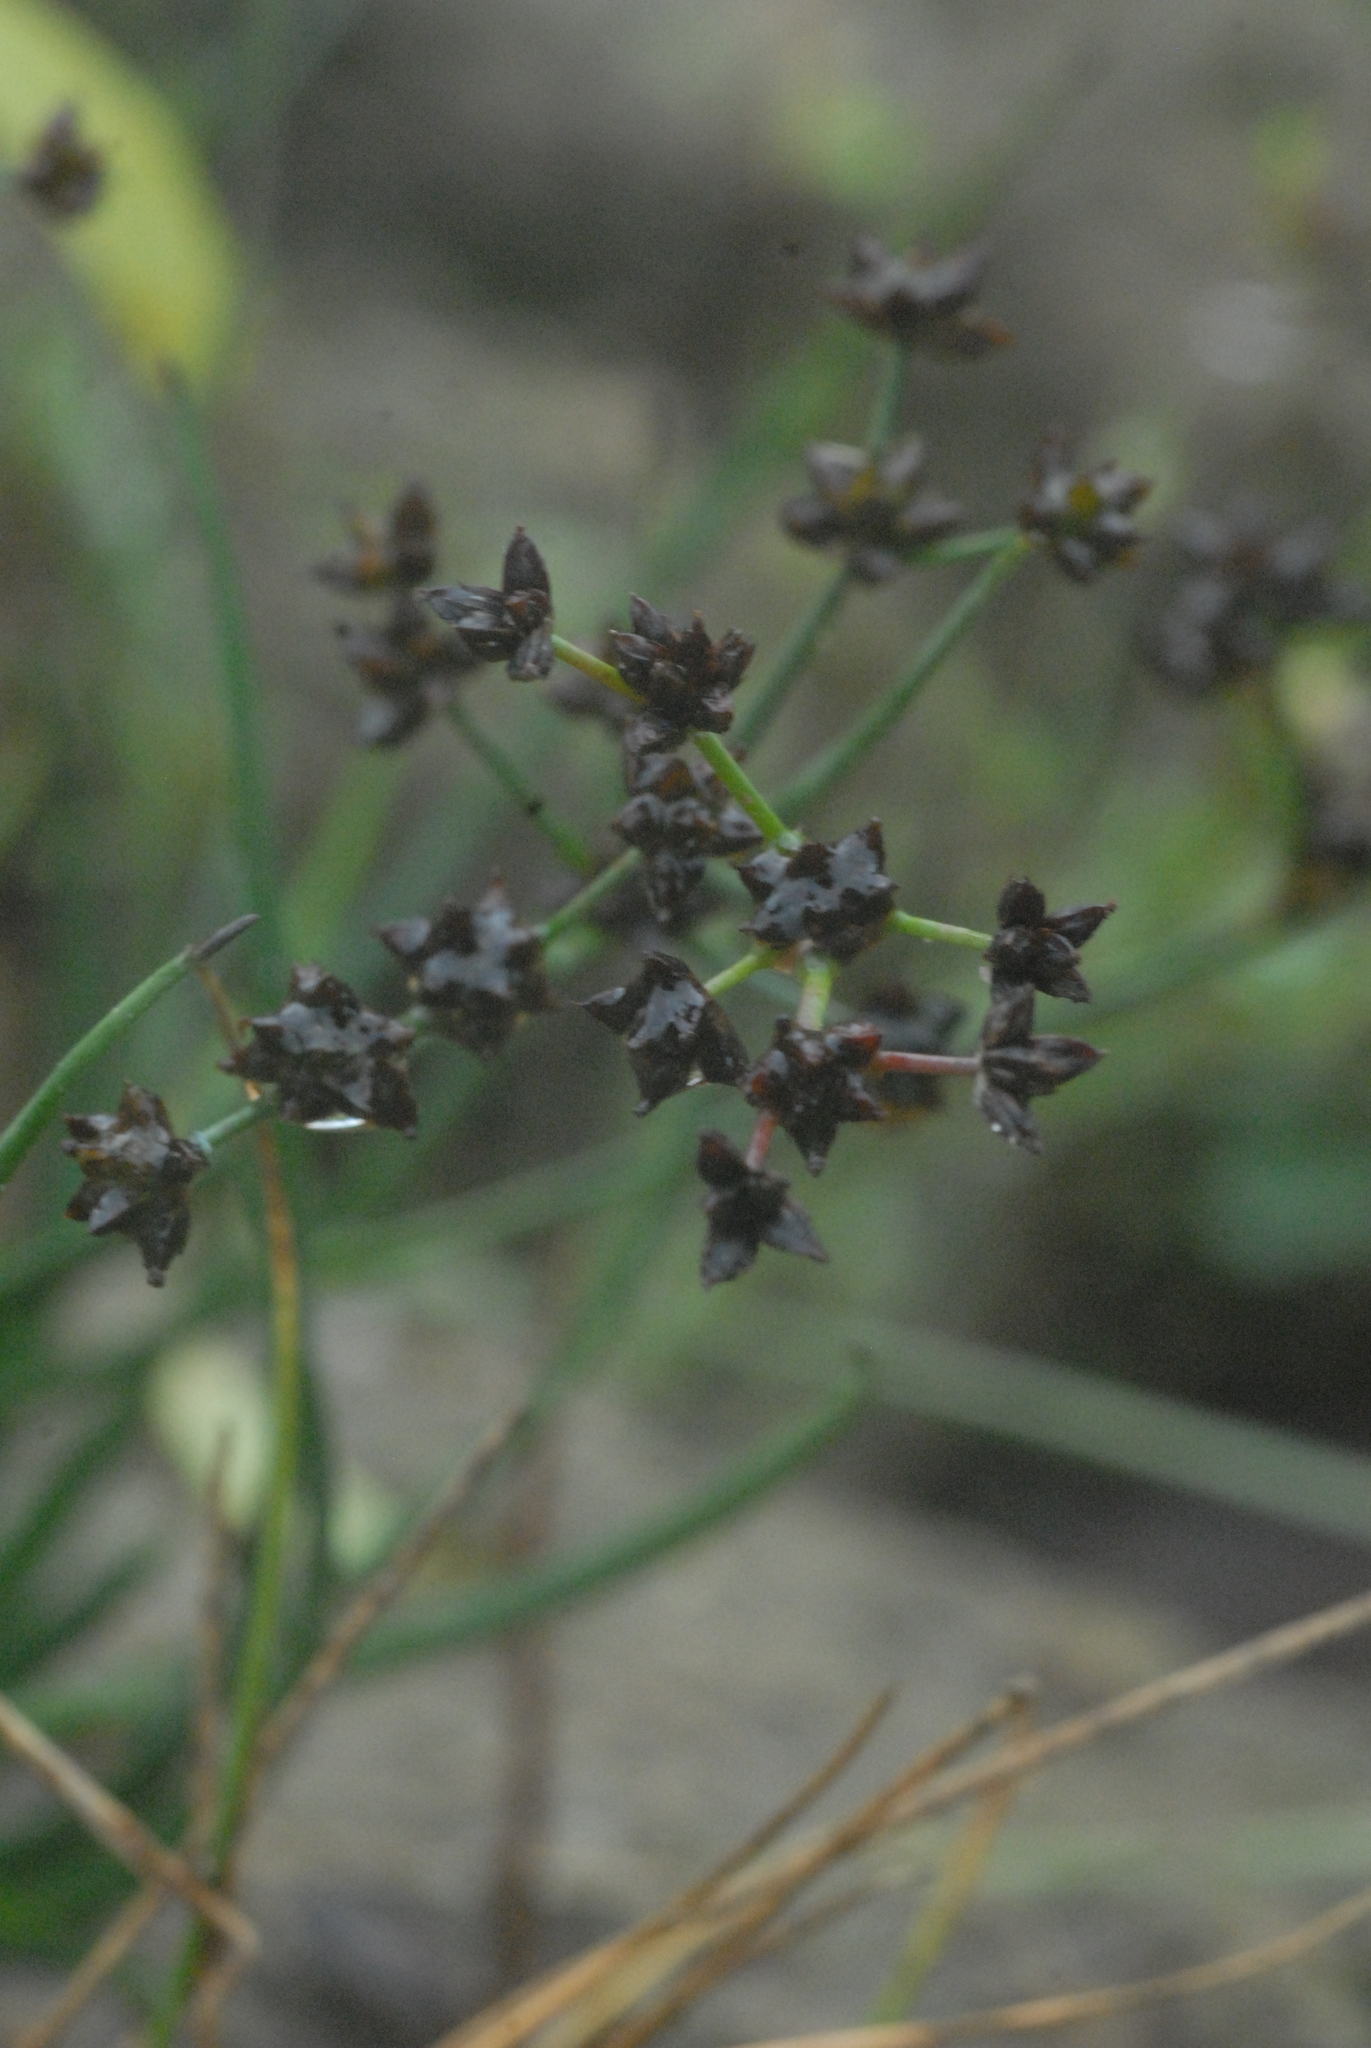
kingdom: Plantae
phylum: Tracheophyta
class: Liliopsida
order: Poales
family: Juncaceae
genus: Juncus
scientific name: Juncus articulatus
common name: Jointed rush
